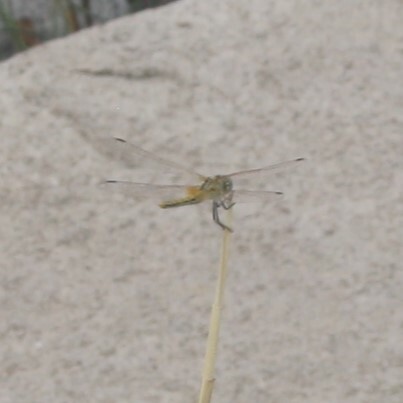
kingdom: Animalia
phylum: Arthropoda
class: Insecta
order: Odonata
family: Libellulidae
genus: Sympetrum
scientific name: Sympetrum fonscolombii
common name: Red-veined darter
